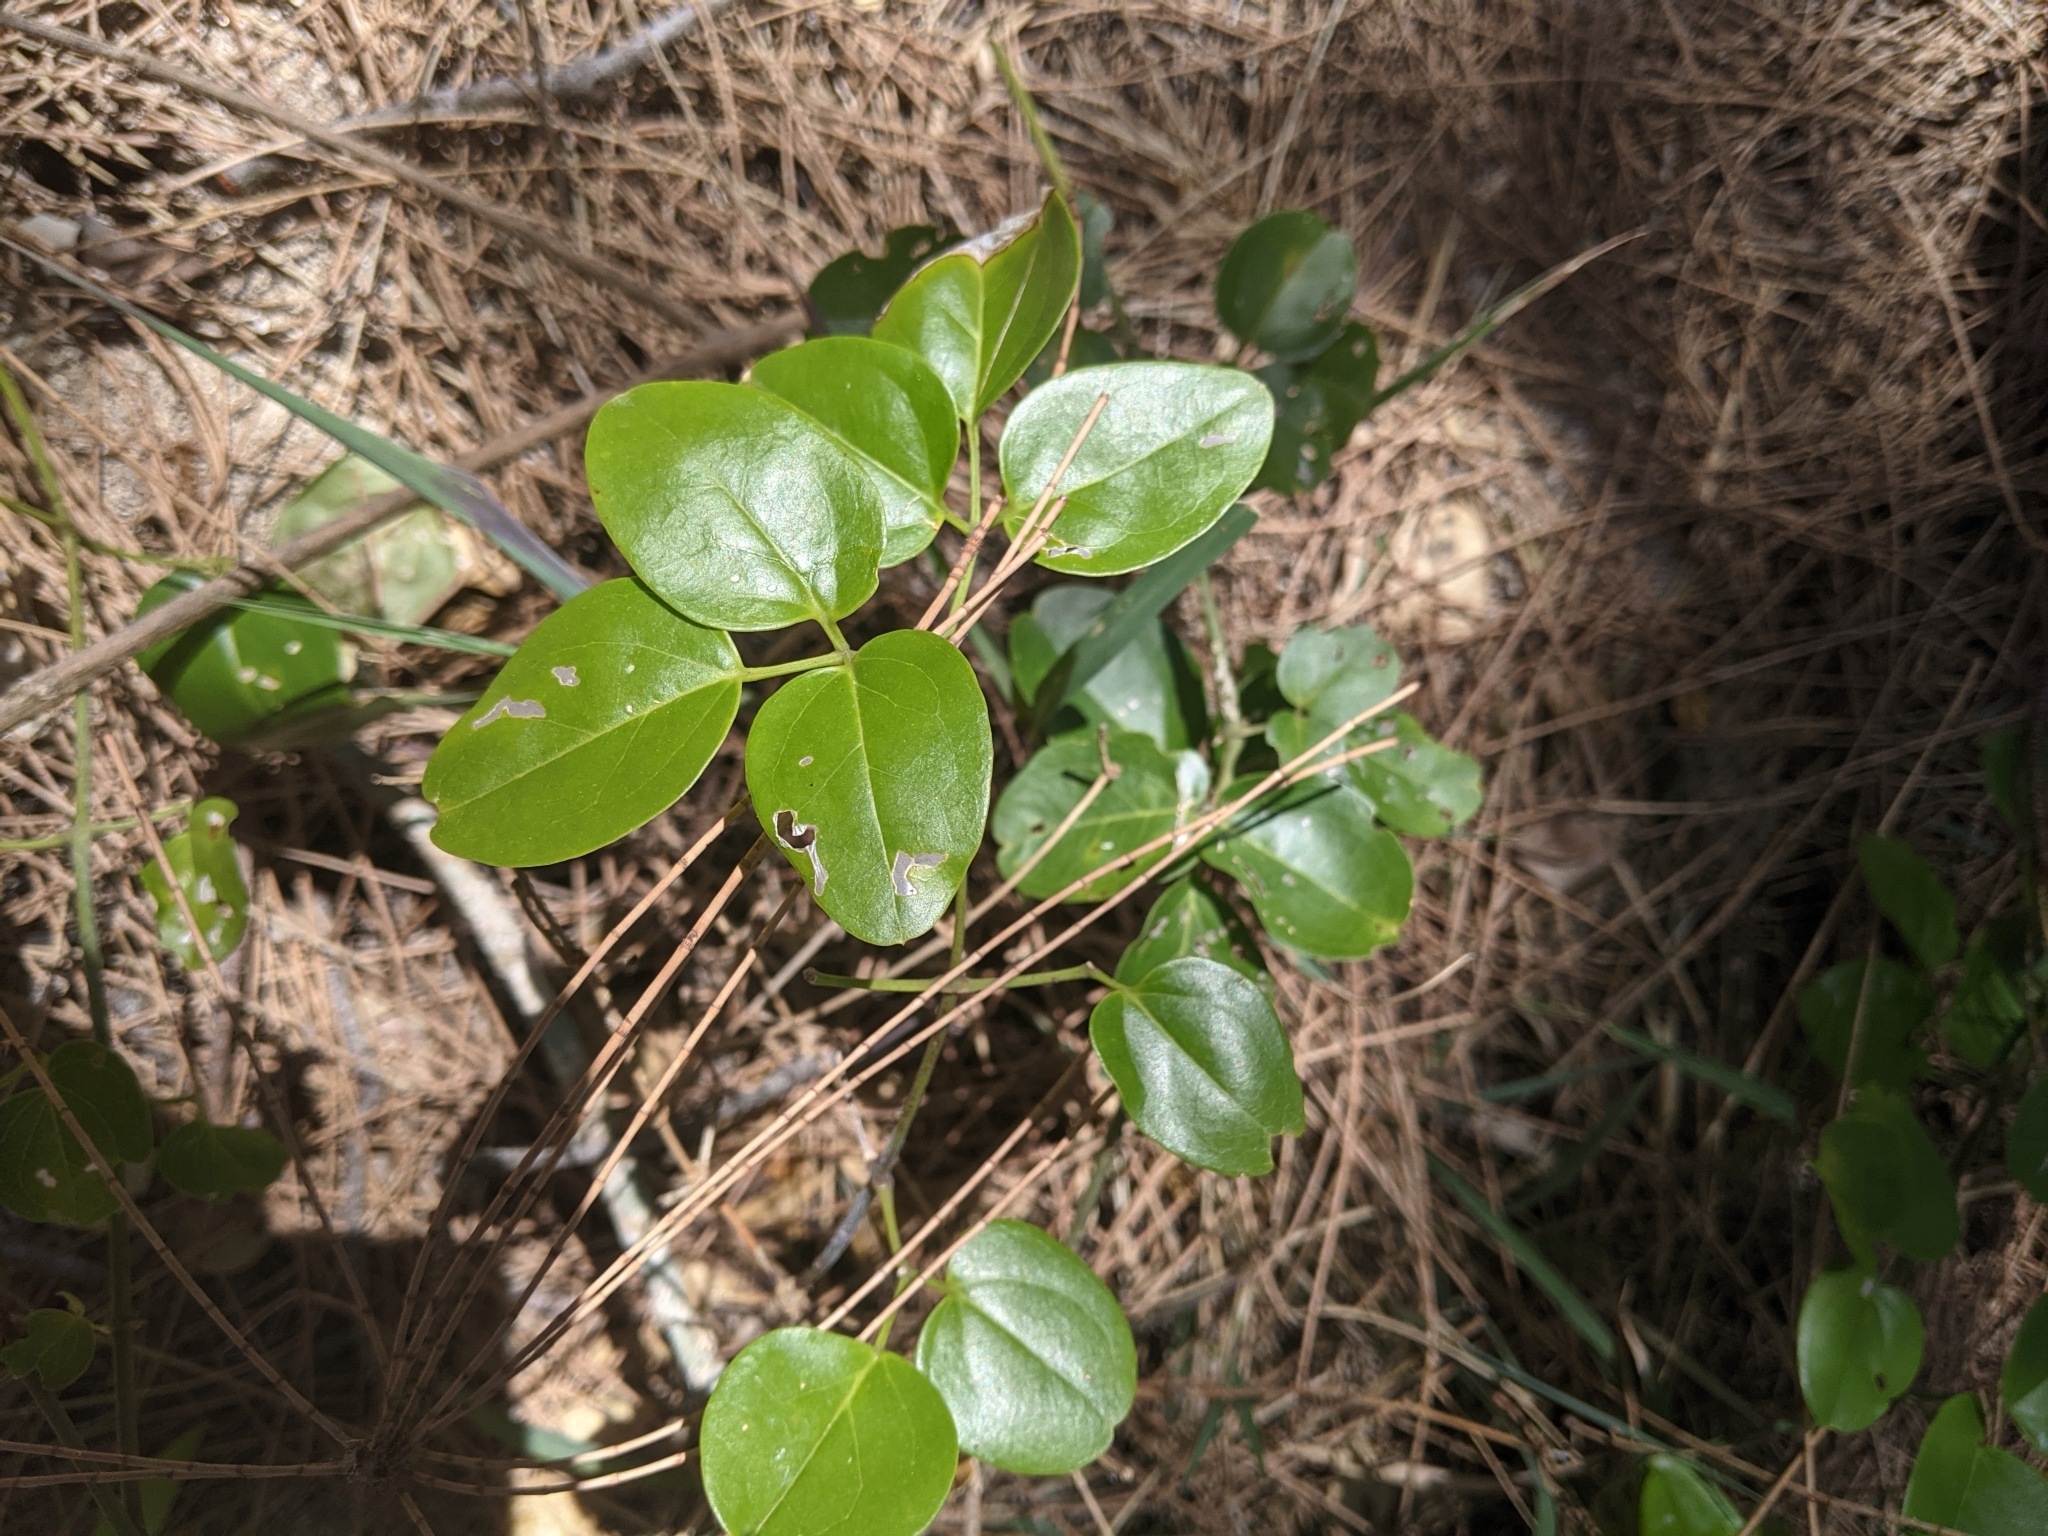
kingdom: Plantae
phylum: Tracheophyta
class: Magnoliopsida
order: Lamiales
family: Oleaceae
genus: Jasminum
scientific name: Jasminum didymum
